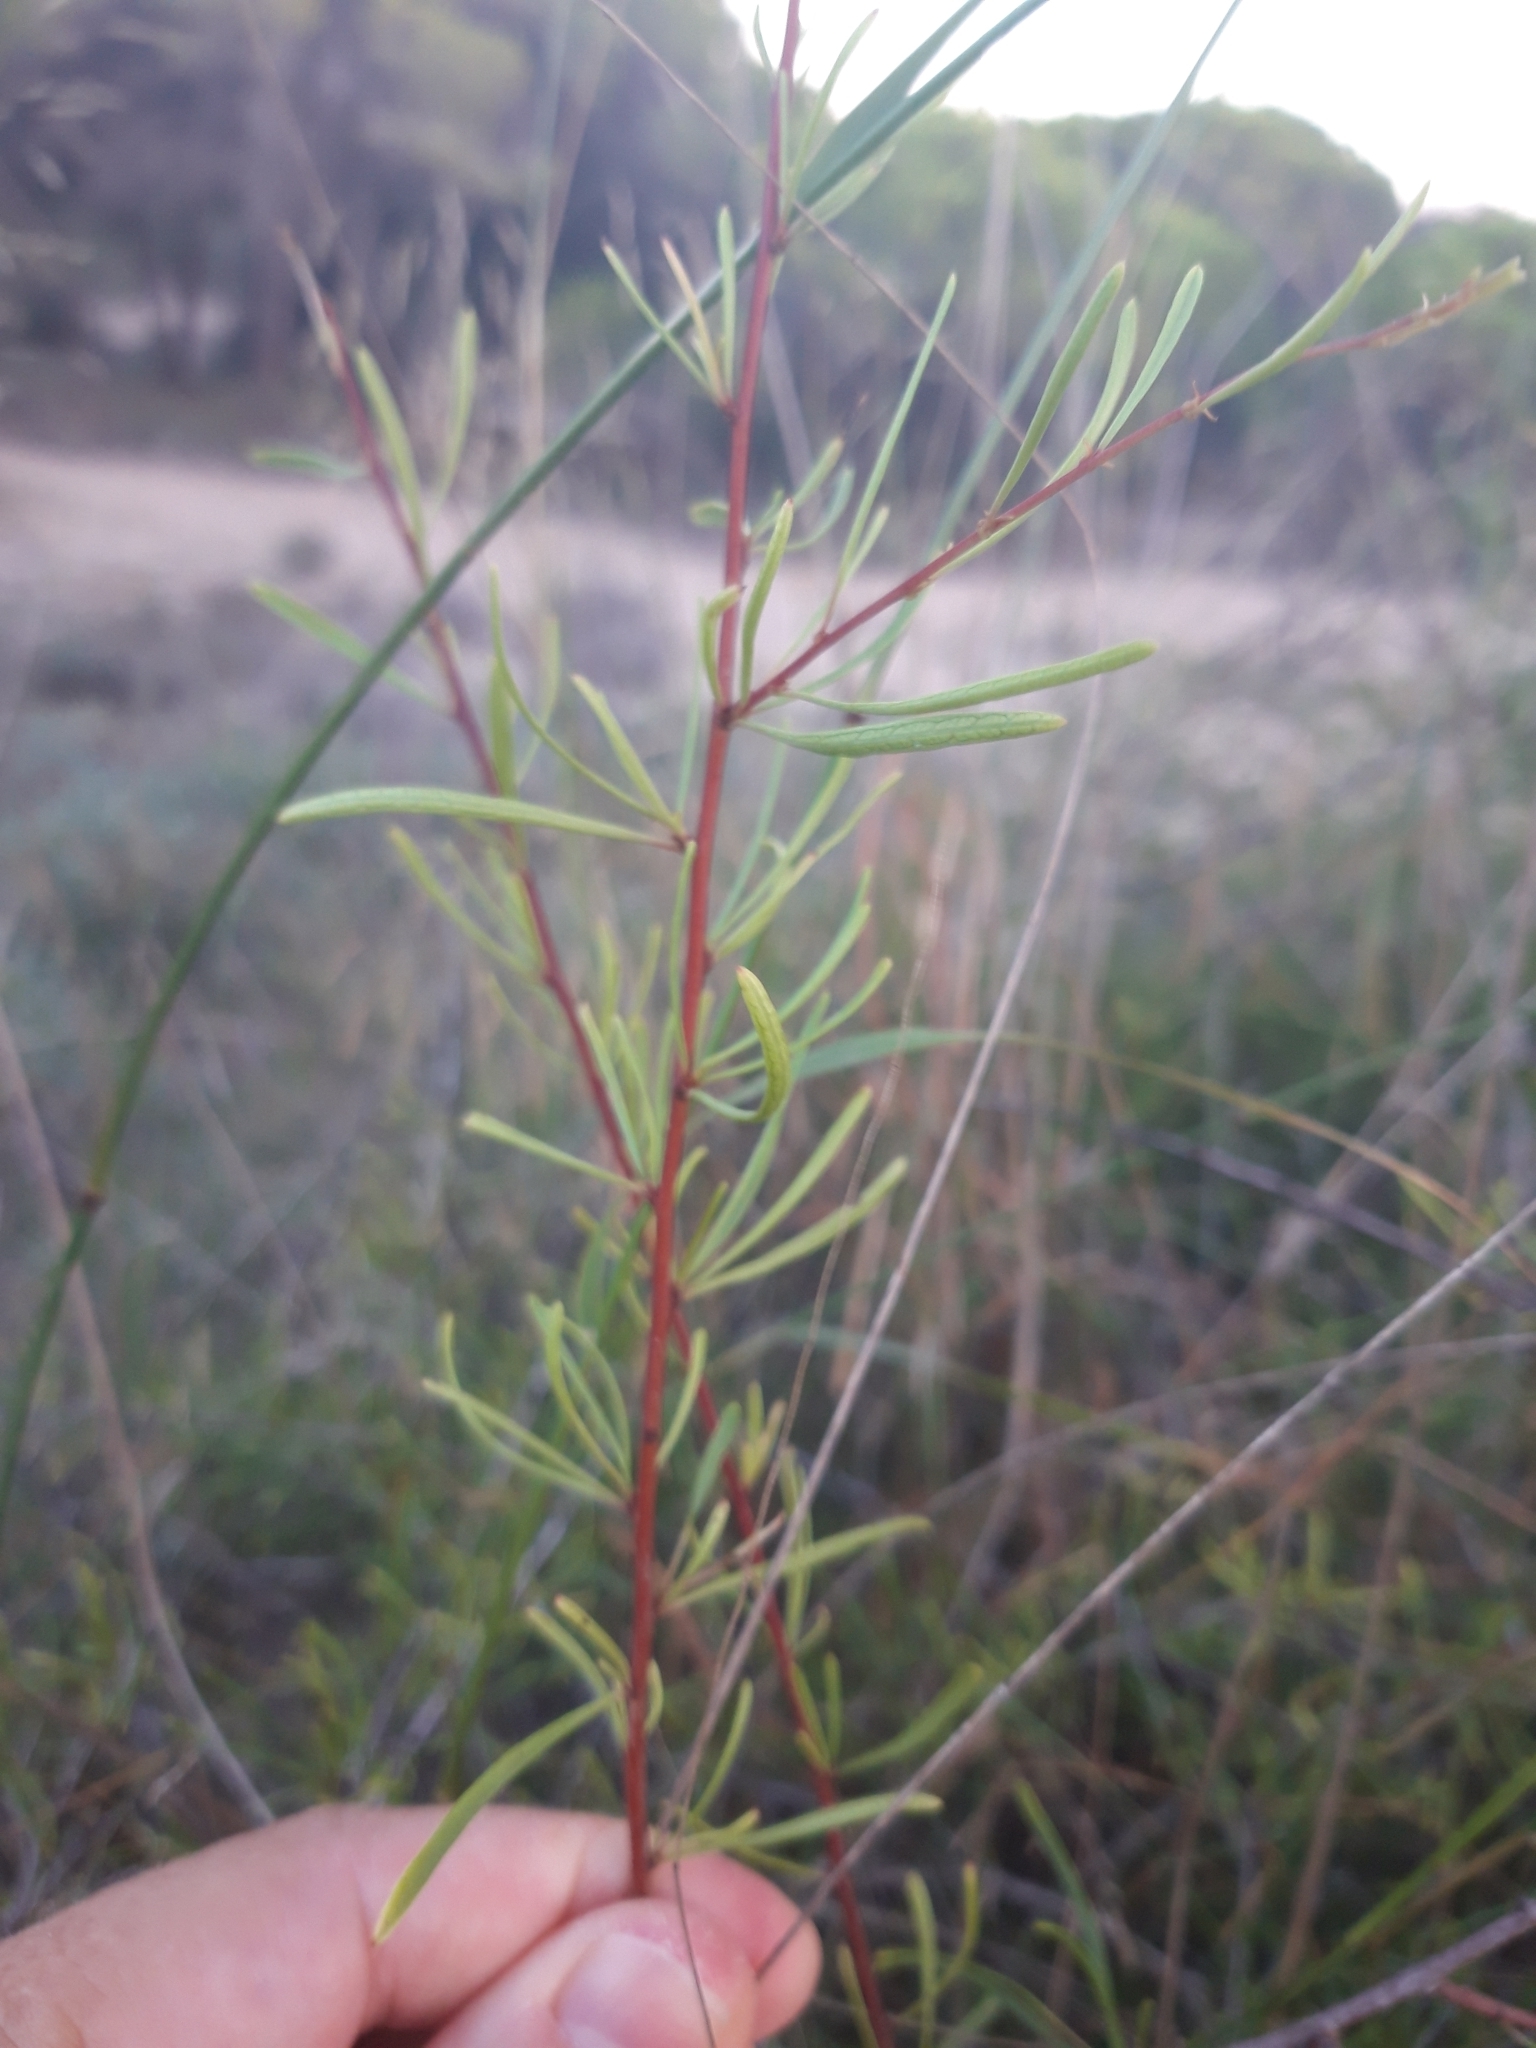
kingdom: Plantae
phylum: Tracheophyta
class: Magnoliopsida
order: Rosales
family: Rhamnaceae
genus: Rhamnus
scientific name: Rhamnus lycioides
